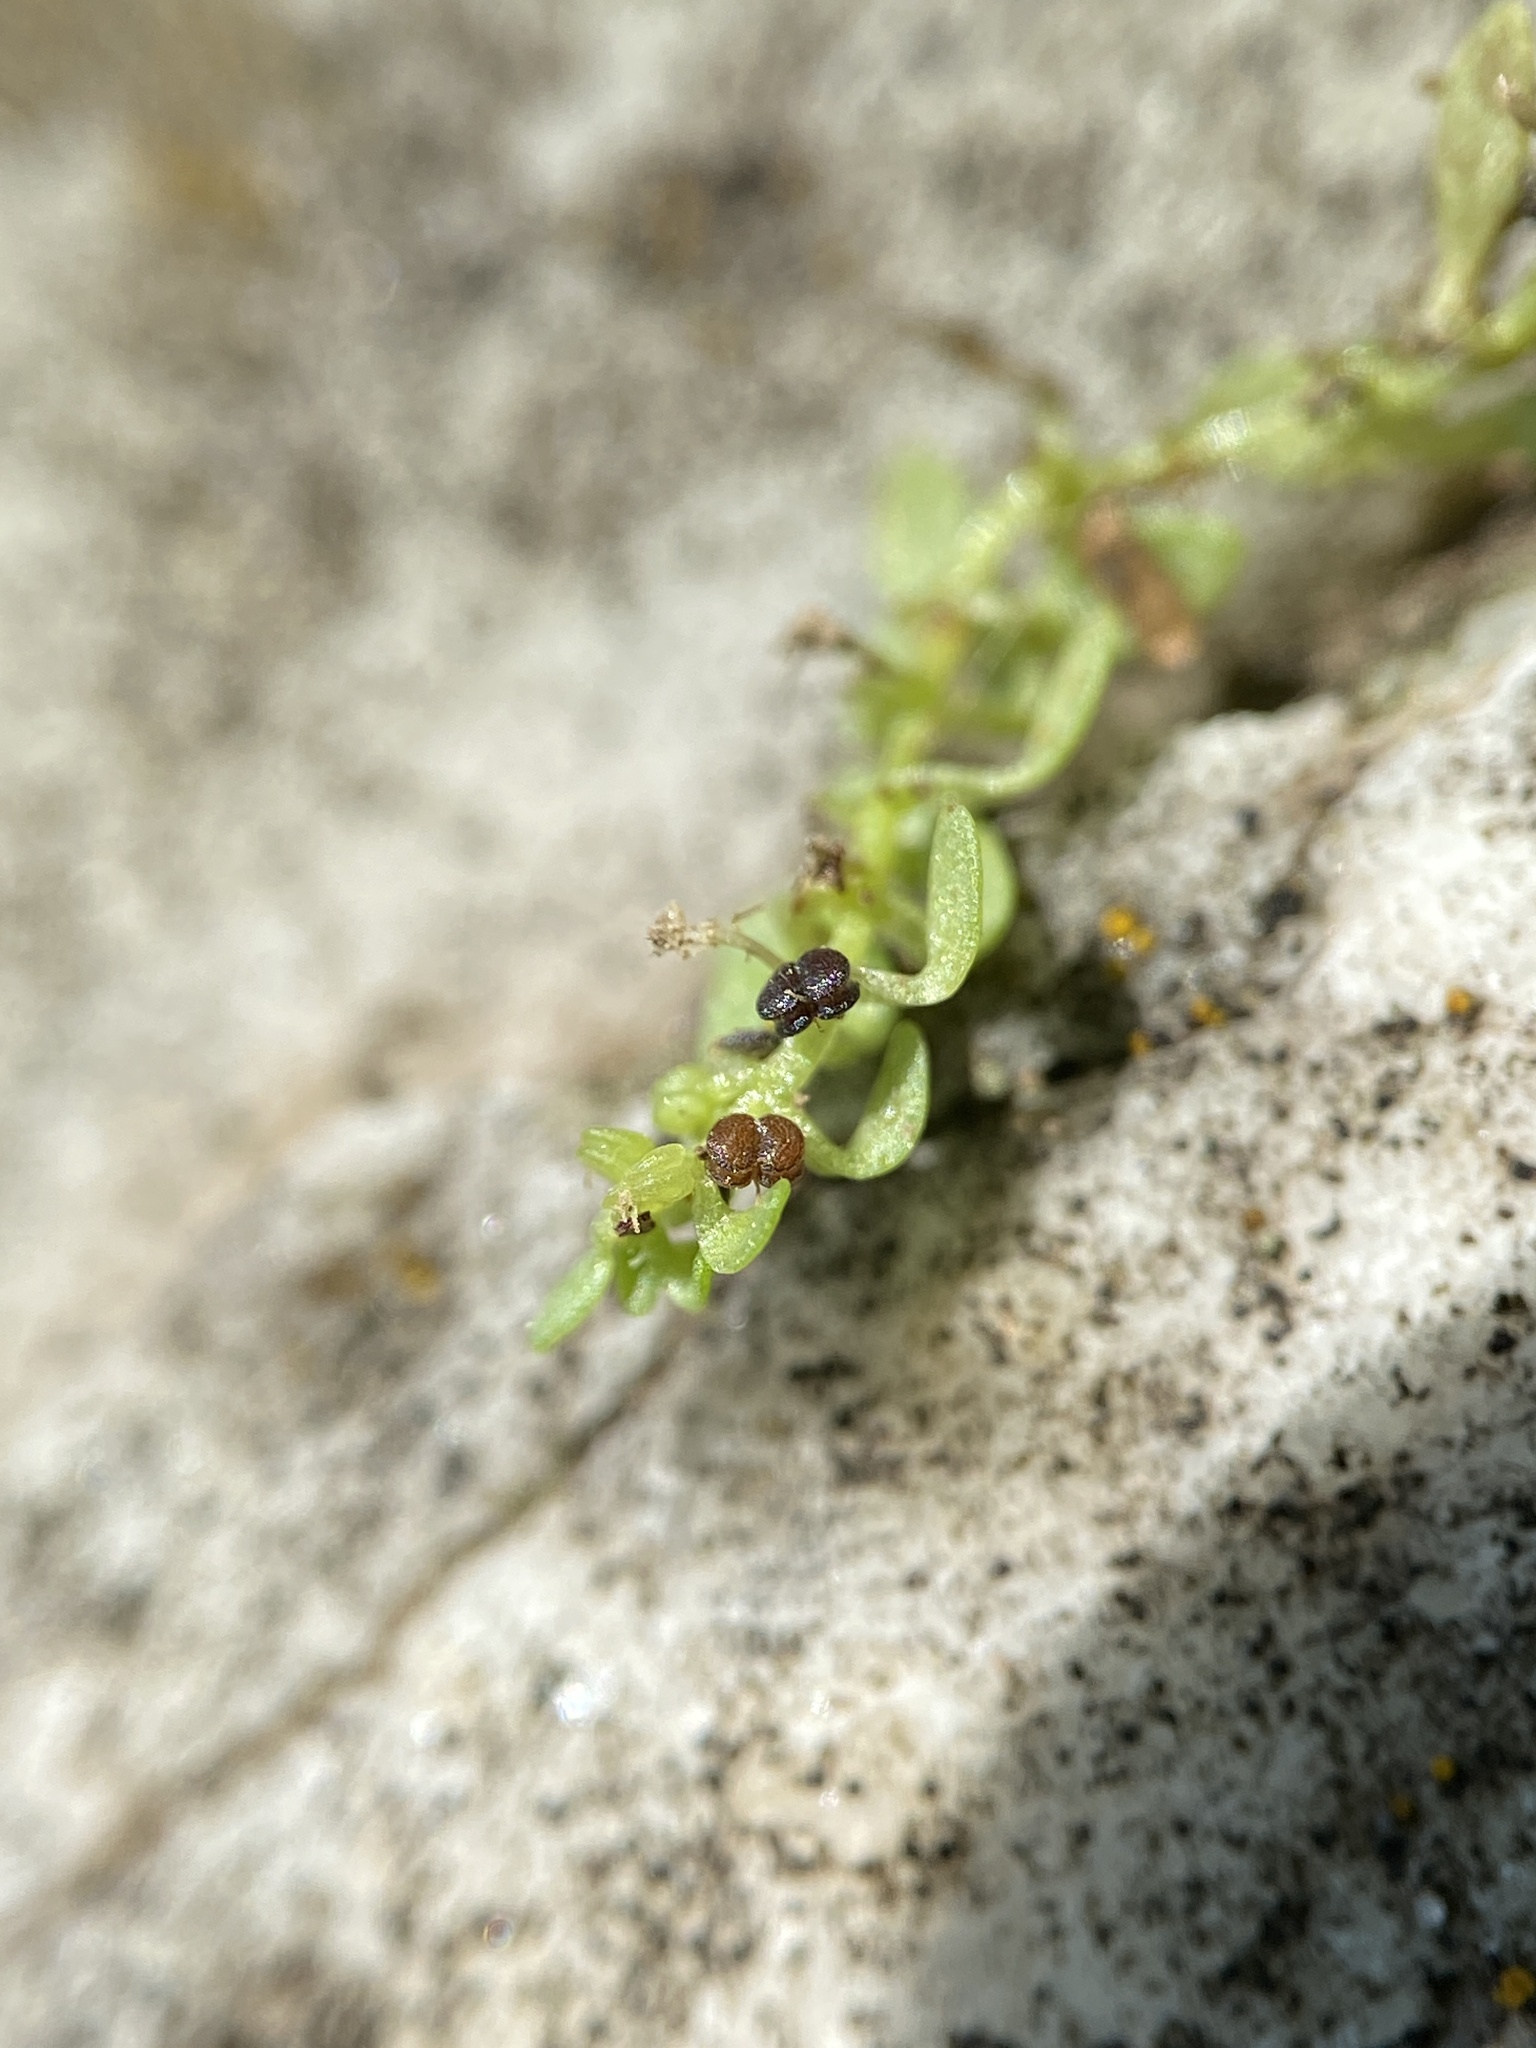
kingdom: Plantae
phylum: Tracheophyta
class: Magnoliopsida
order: Lamiales
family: Plantaginaceae
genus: Callitriche
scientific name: Callitriche terrestris
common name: Terrestrial water-starwort
